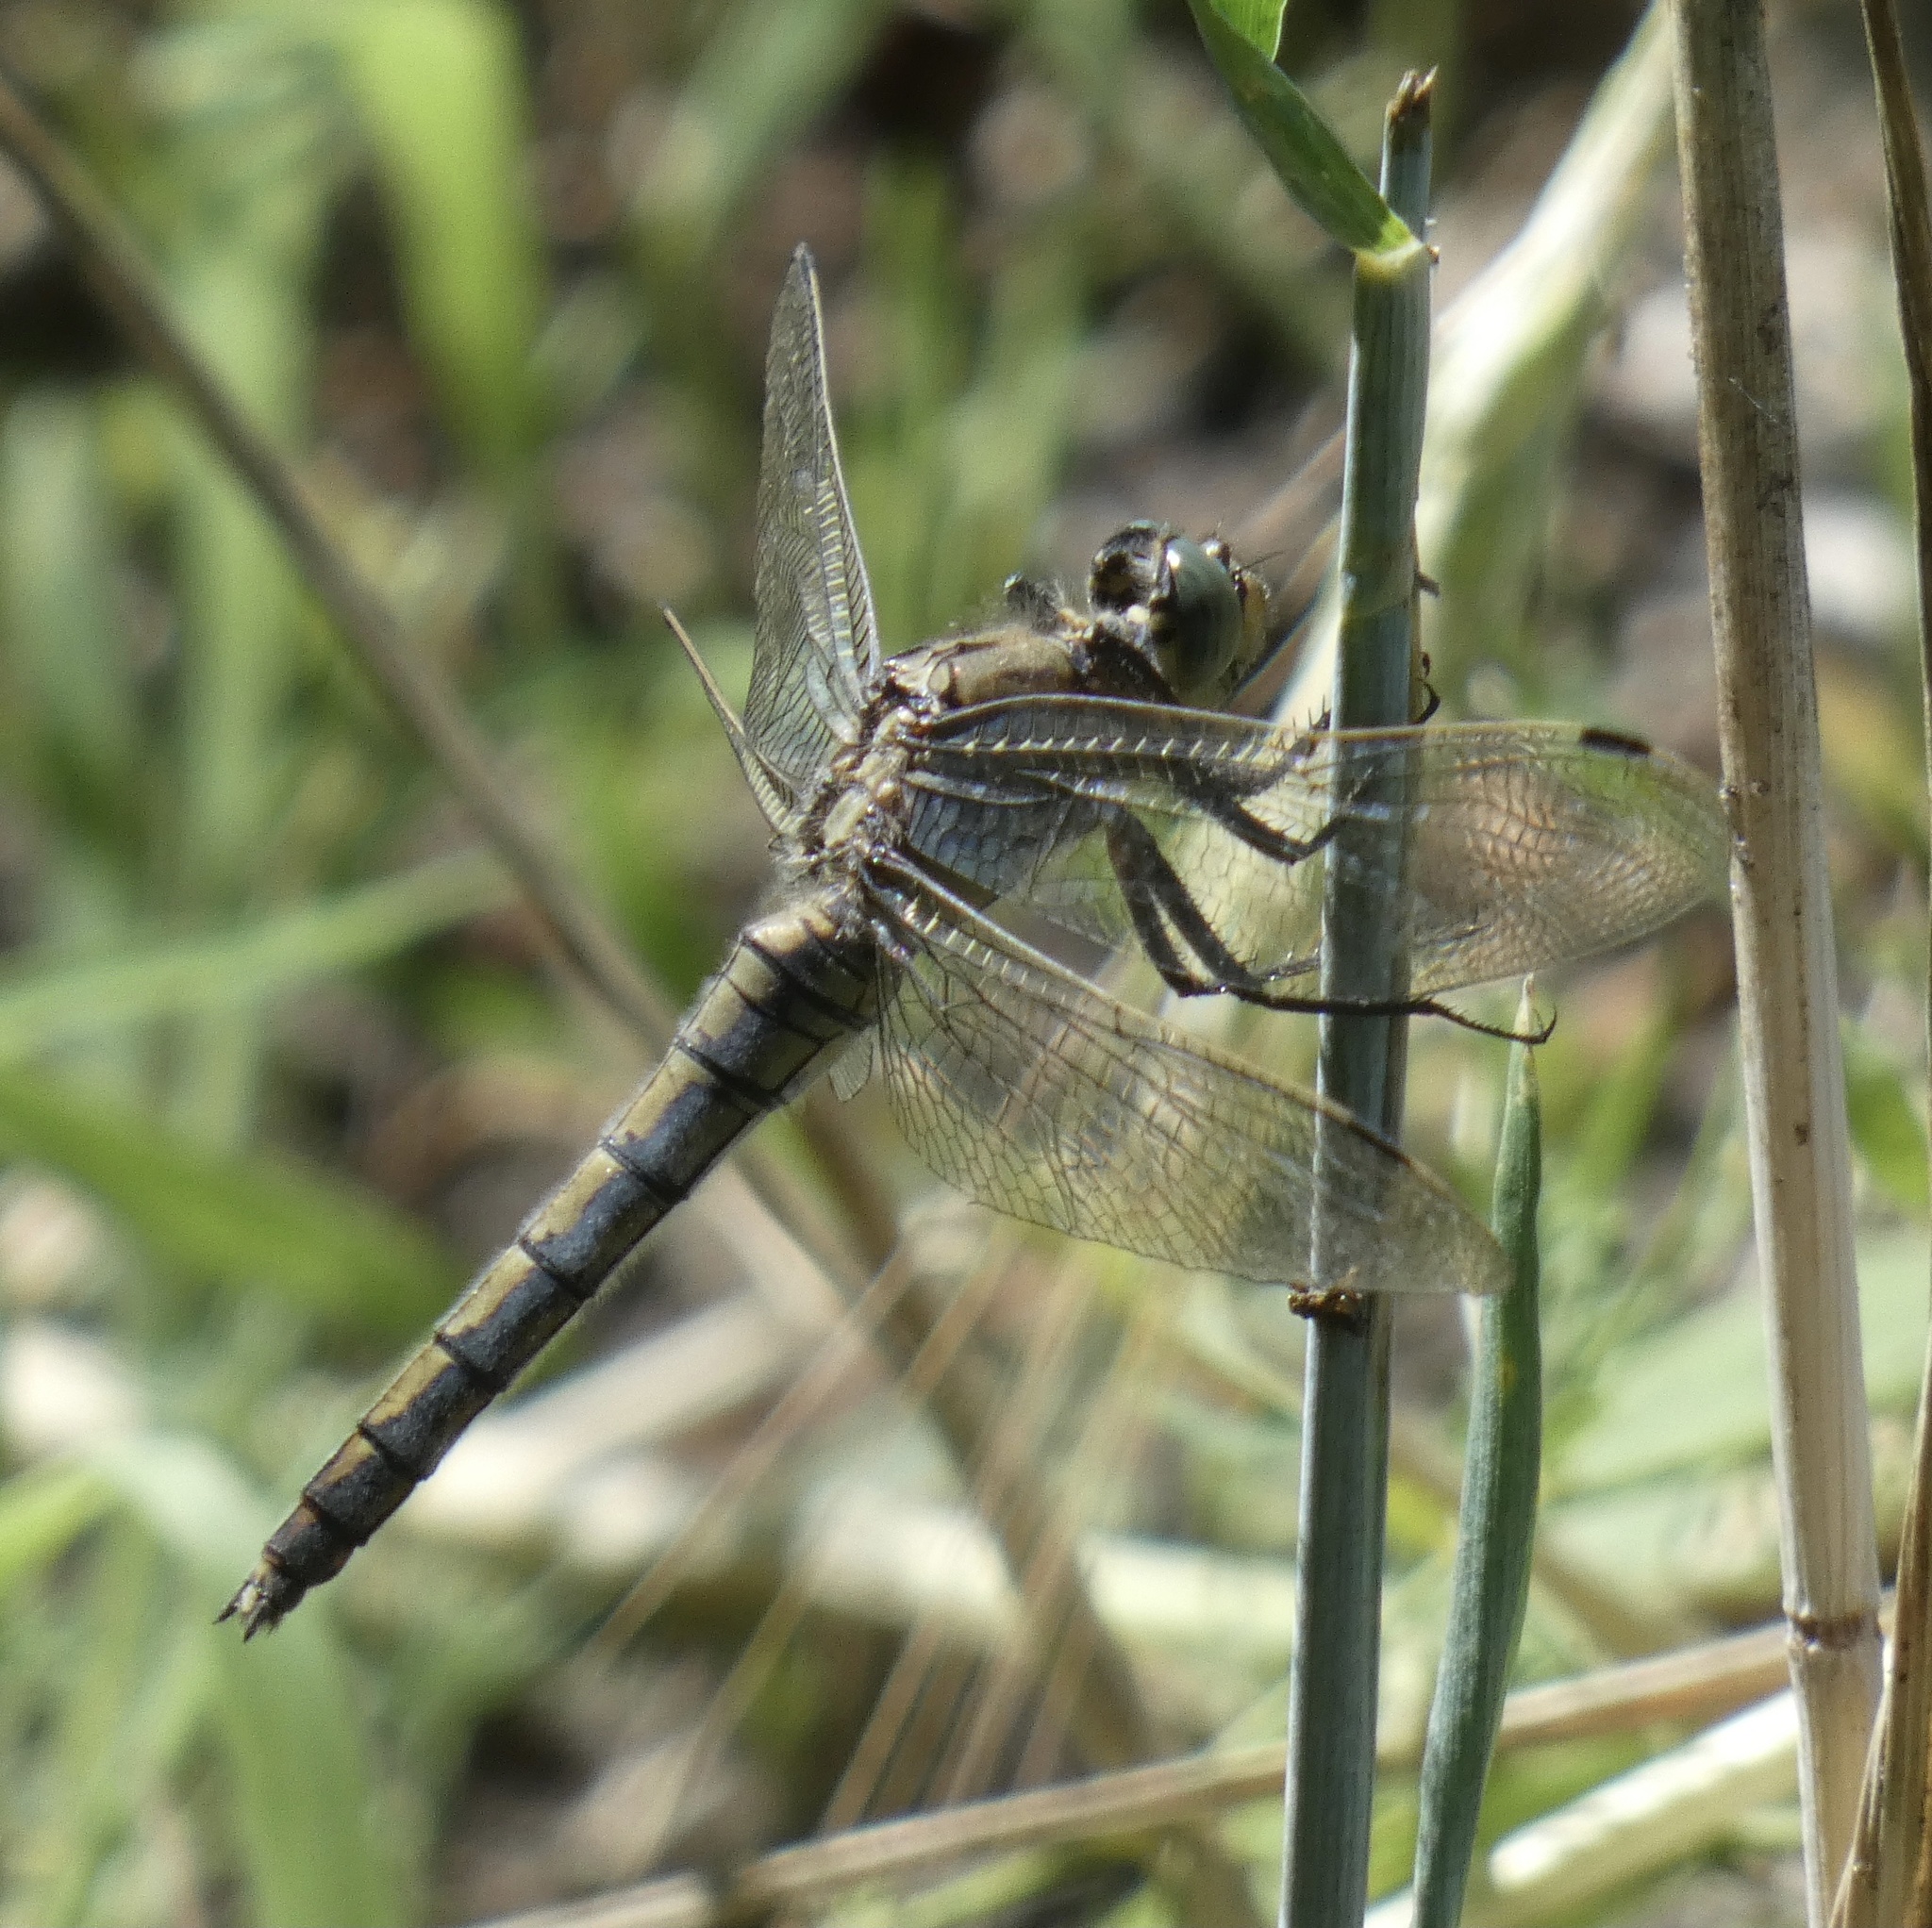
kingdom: Animalia
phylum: Arthropoda
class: Insecta
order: Odonata
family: Libellulidae
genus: Orthetrum
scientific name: Orthetrum cancellatum
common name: Black-tailed skimmer
